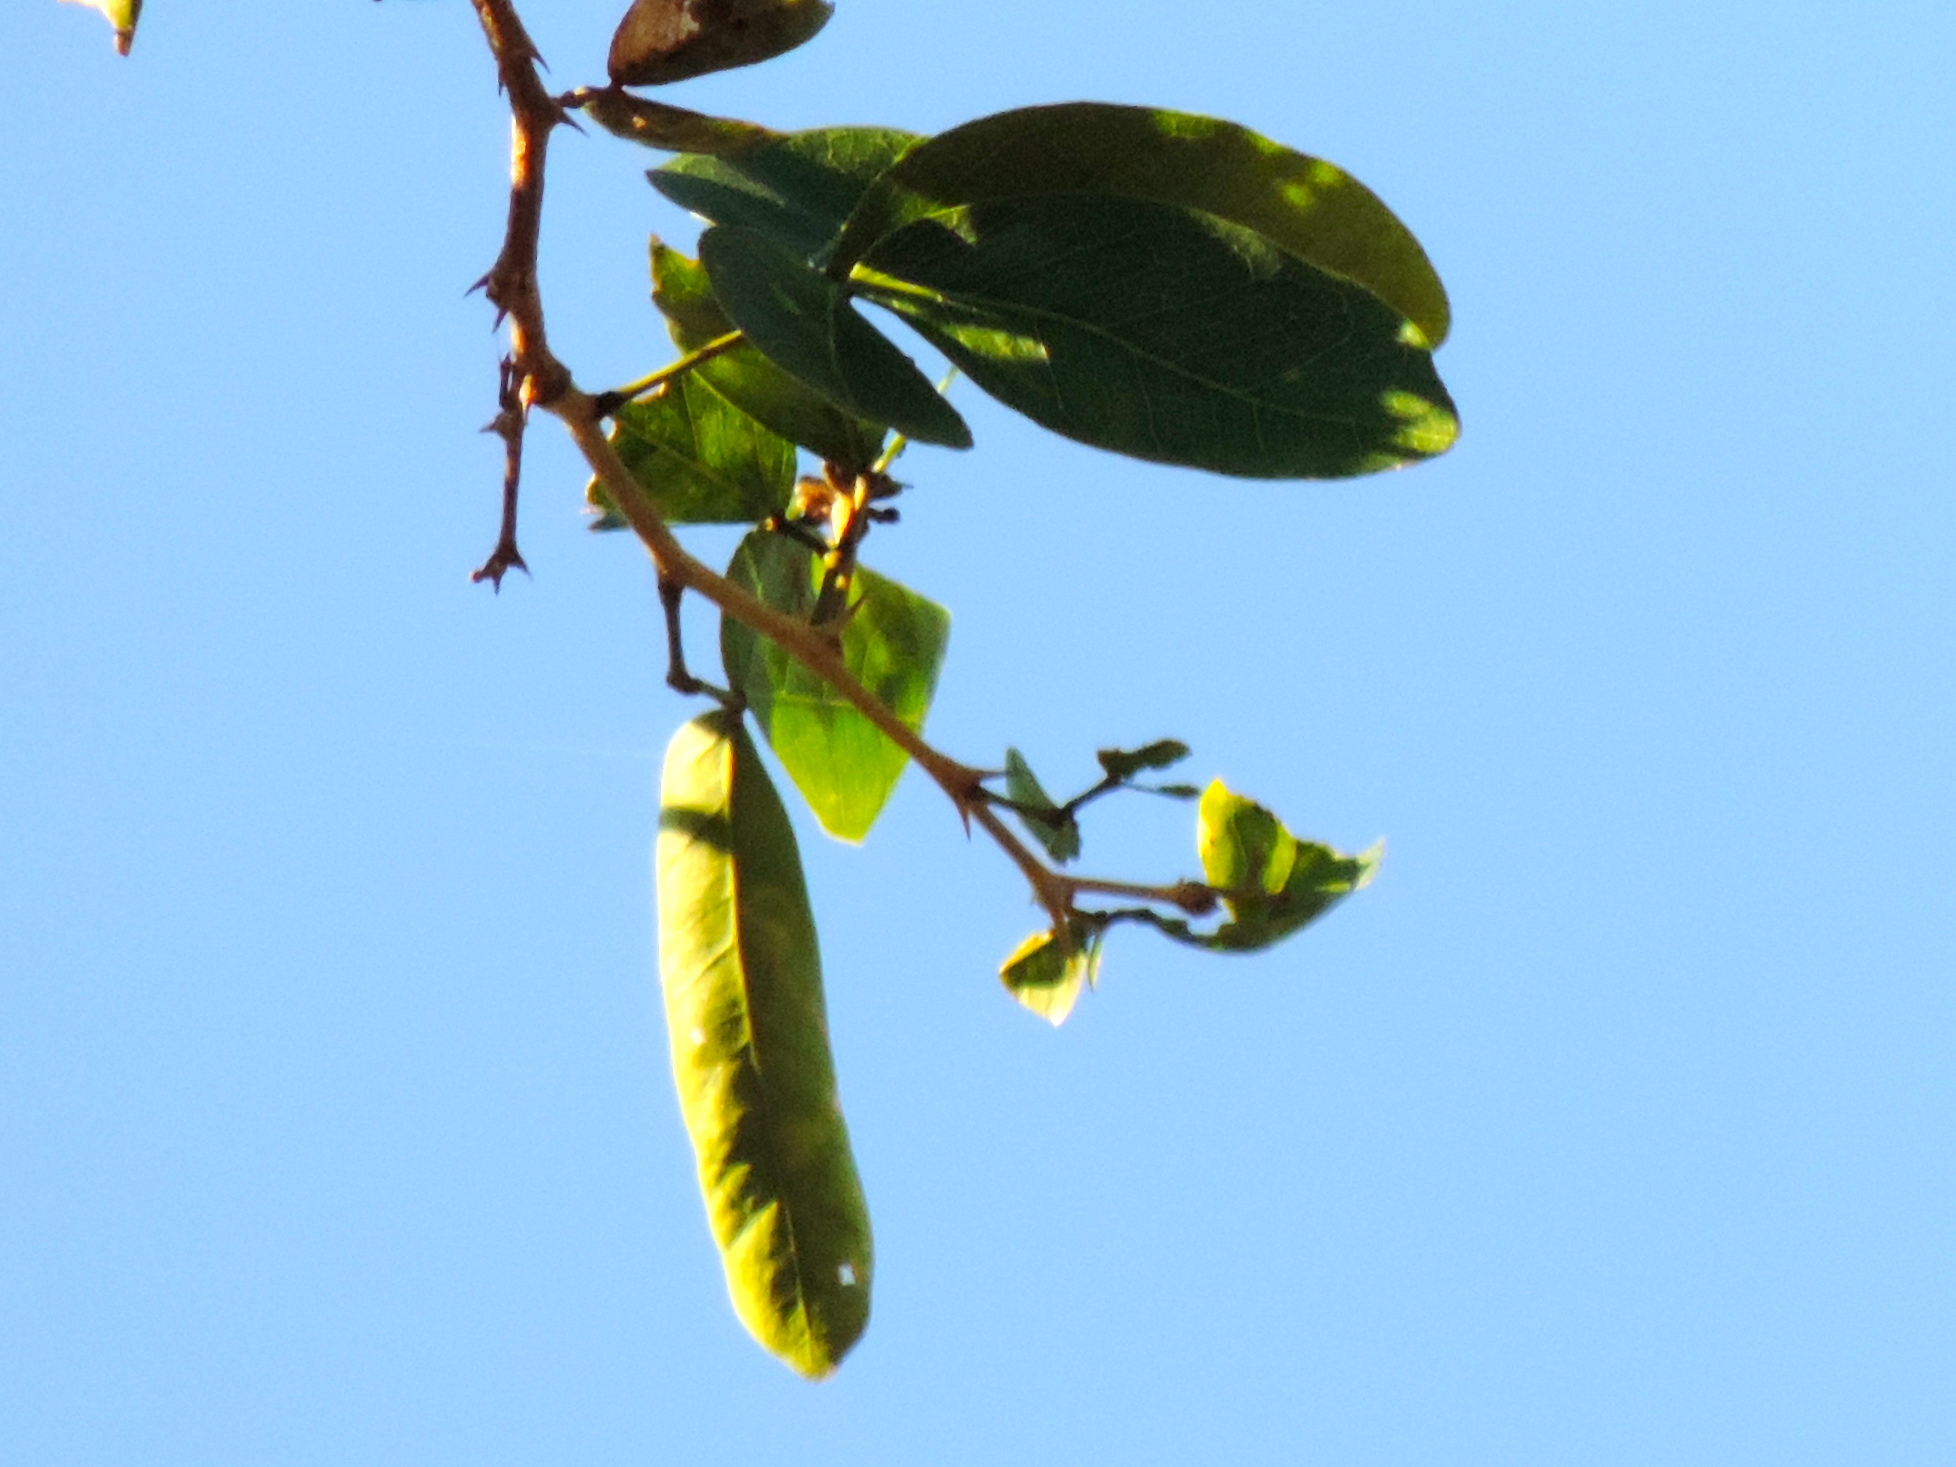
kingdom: Plantae
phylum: Tracheophyta
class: Magnoliopsida
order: Fabales
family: Fabaceae
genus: Pithecellobium
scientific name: Pithecellobium lanceolatum
